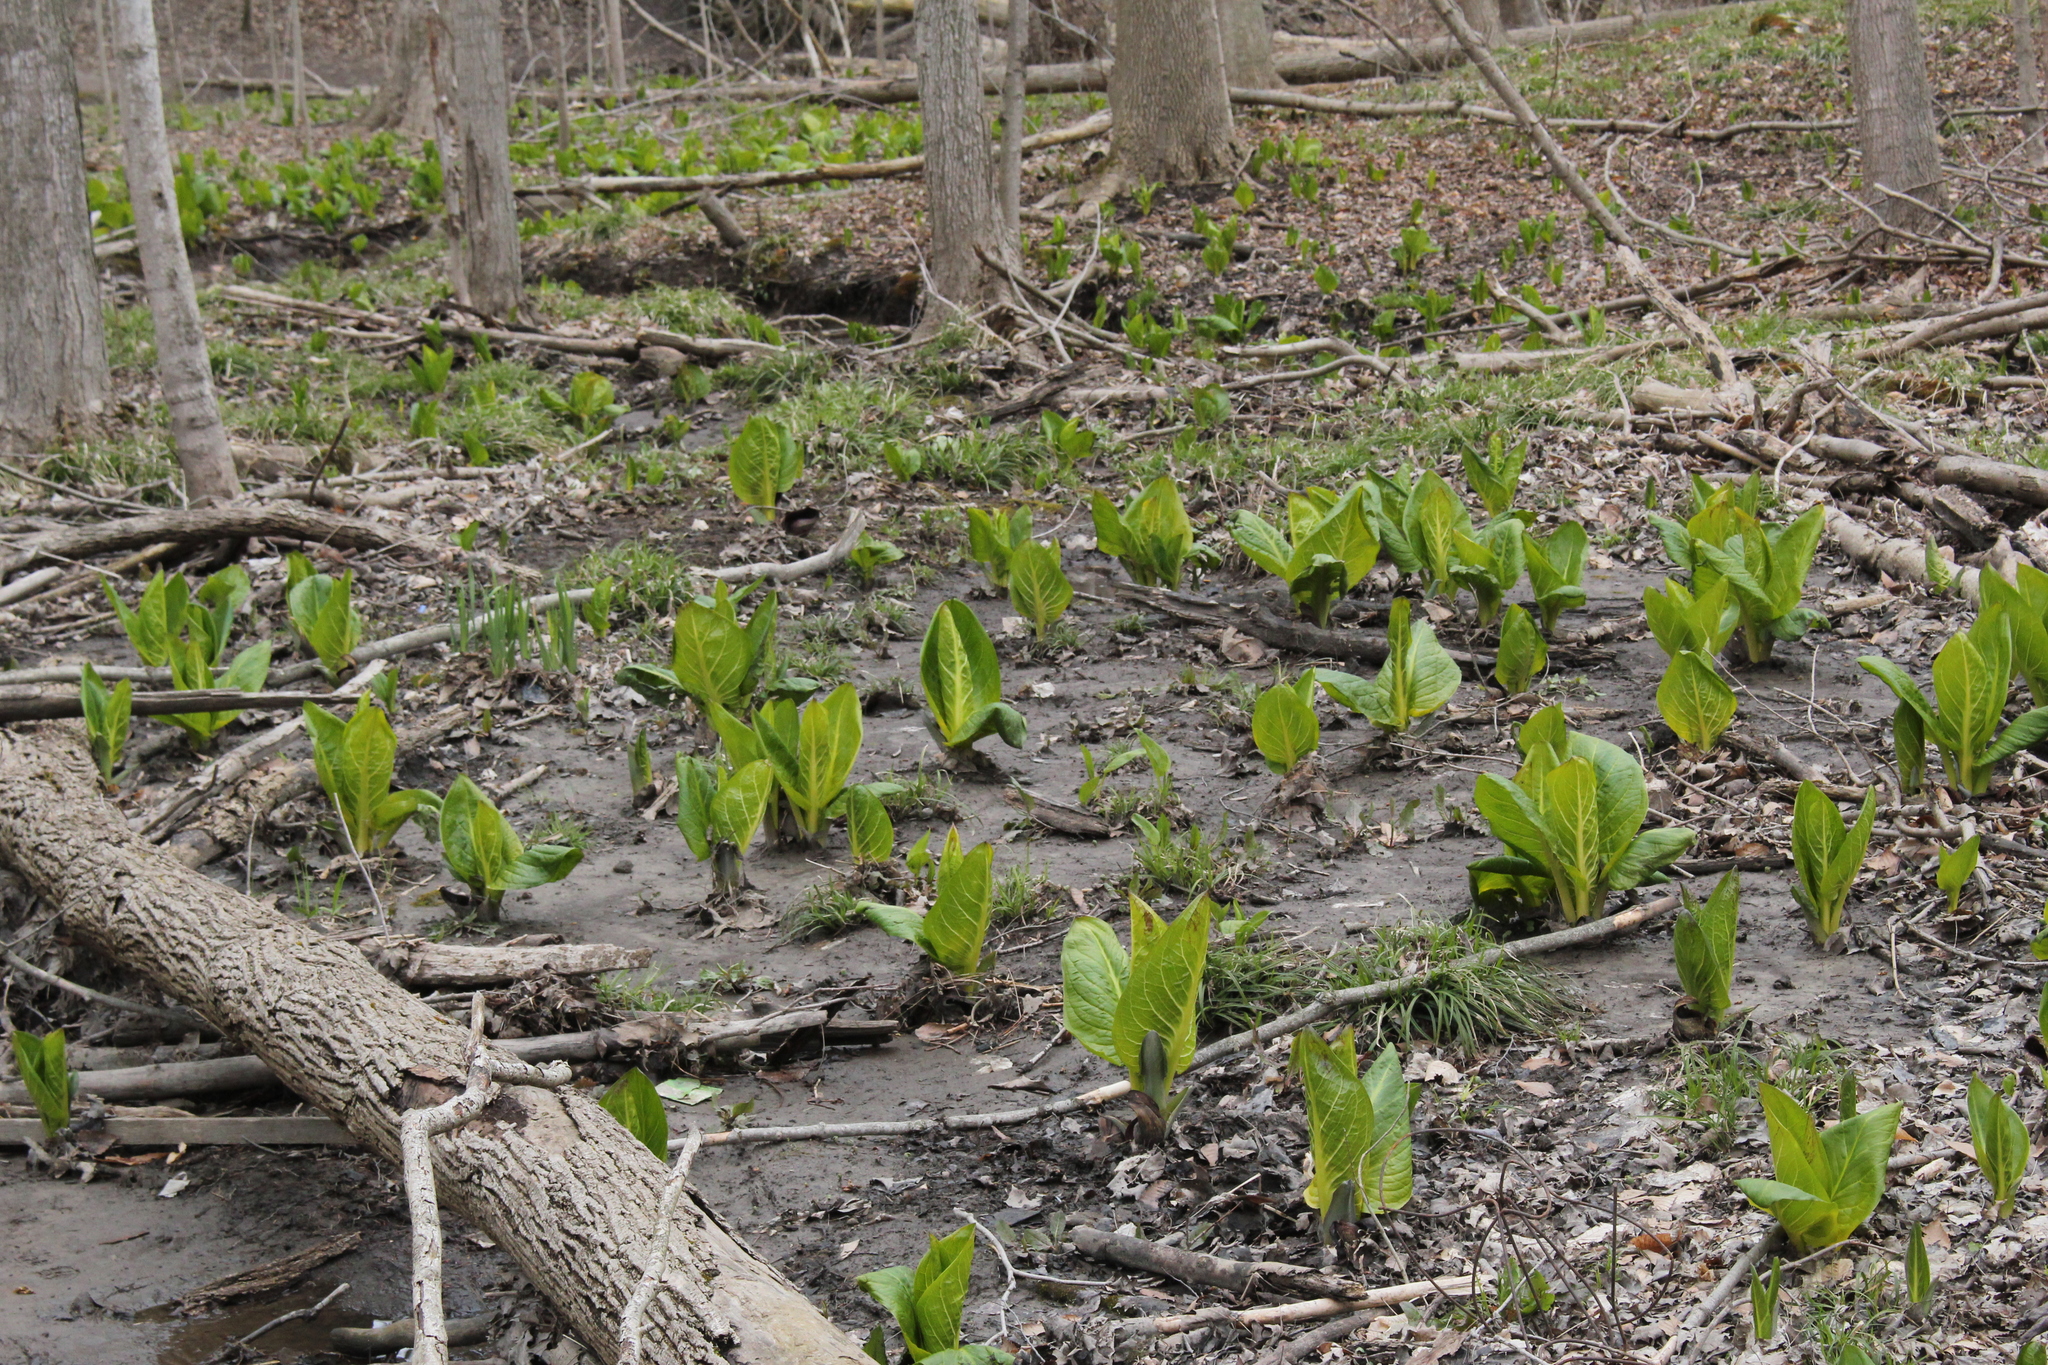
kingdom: Plantae
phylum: Tracheophyta
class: Liliopsida
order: Alismatales
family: Araceae
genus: Symplocarpus
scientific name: Symplocarpus foetidus
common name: Eastern skunk cabbage
